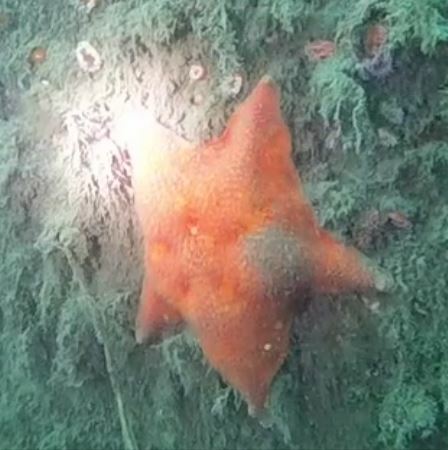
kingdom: Animalia
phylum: Echinodermata
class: Asteroidea
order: Valvatida
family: Asterinidae
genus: Patiria
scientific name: Patiria miniata
